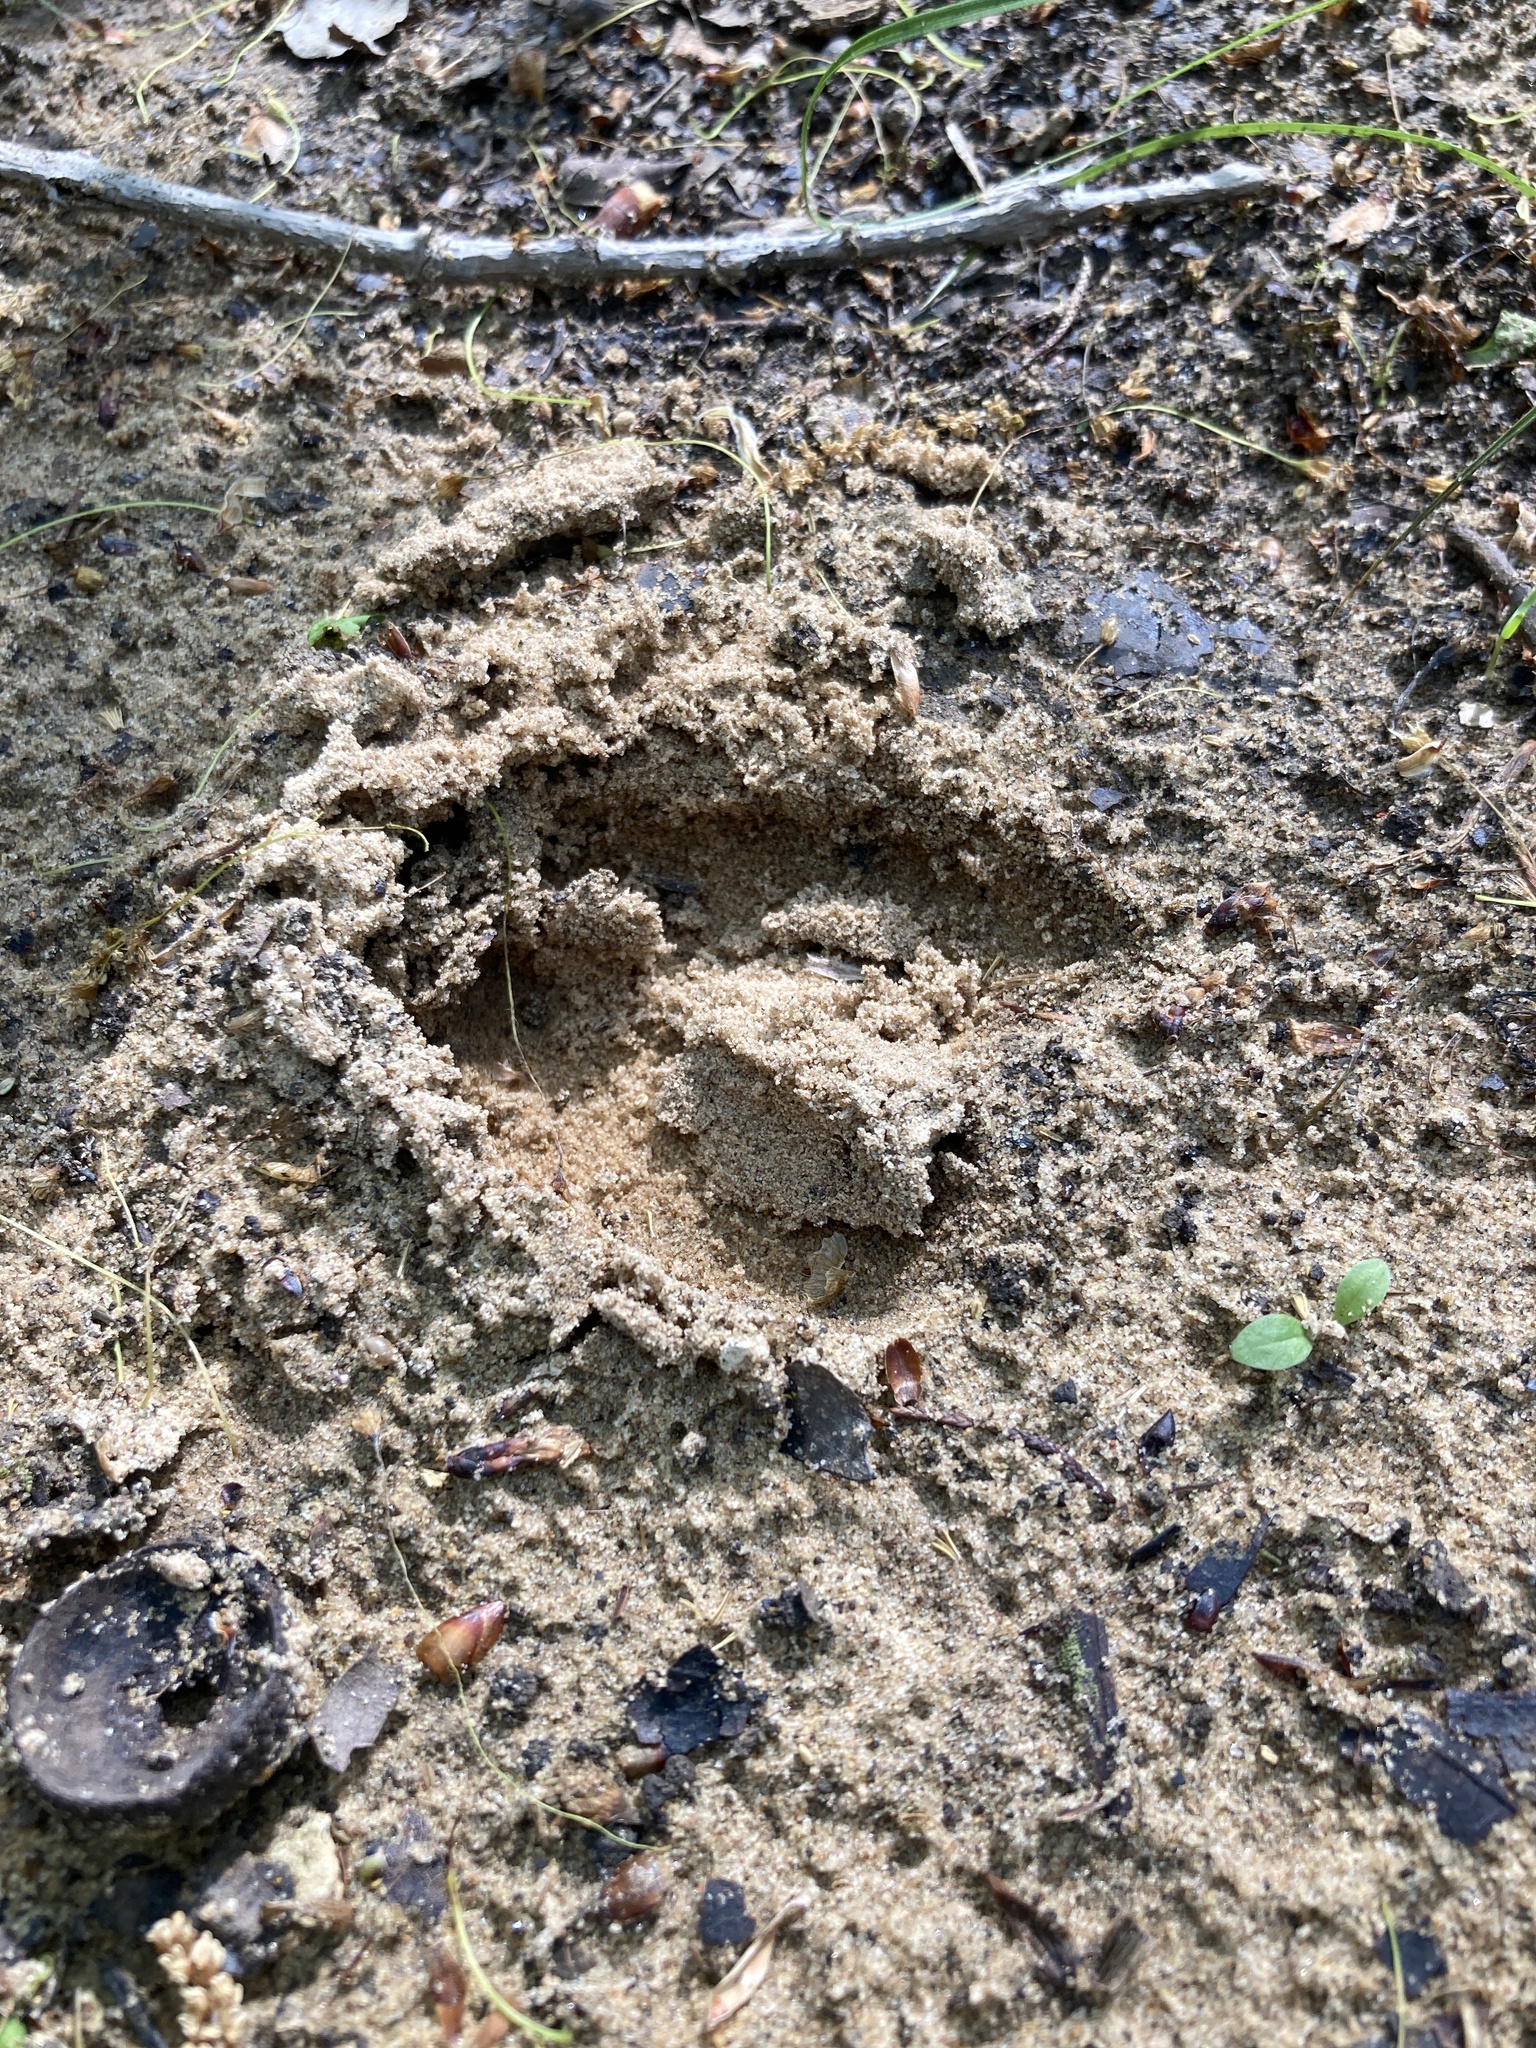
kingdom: Animalia
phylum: Chordata
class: Mammalia
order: Artiodactyla
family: Cervidae
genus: Odocoileus
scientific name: Odocoileus virginianus
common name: White-tailed deer
